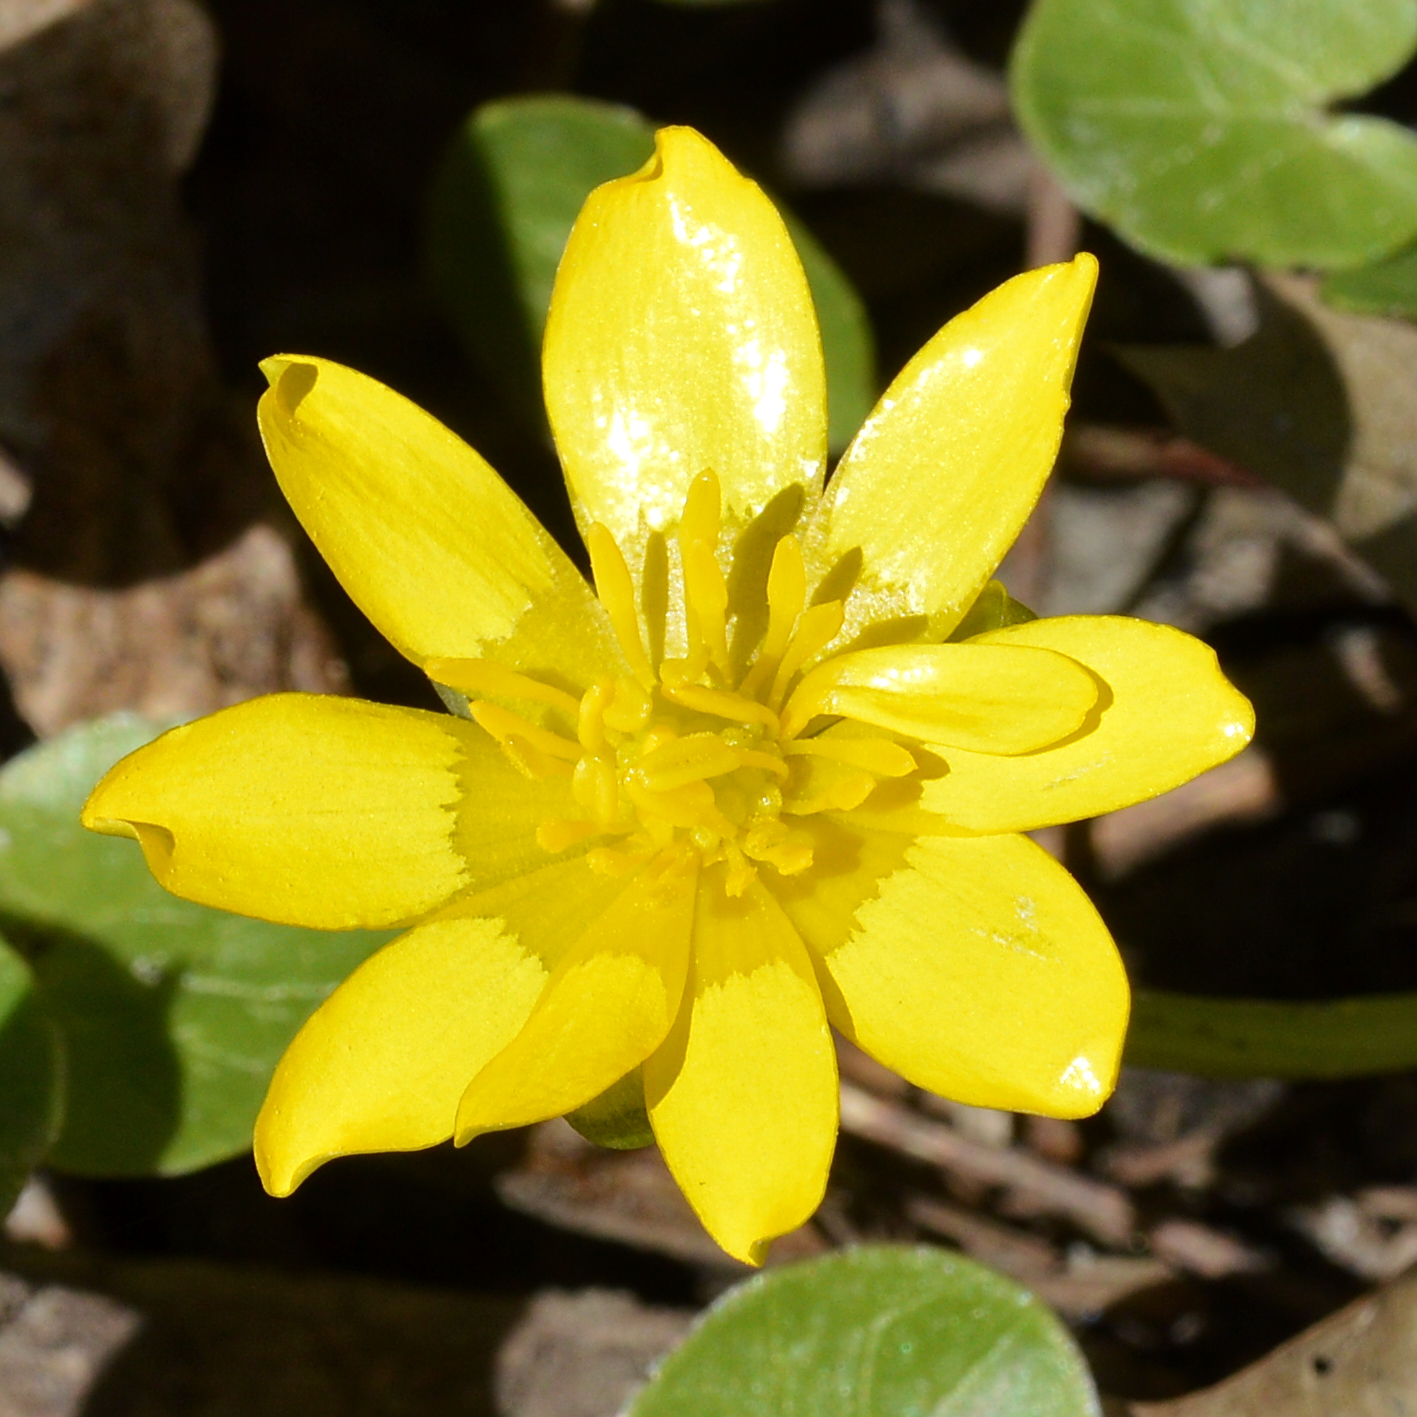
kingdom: Plantae
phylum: Tracheophyta
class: Magnoliopsida
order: Ranunculales
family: Ranunculaceae
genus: Ficaria
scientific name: Ficaria verna
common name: Lesser celandine
